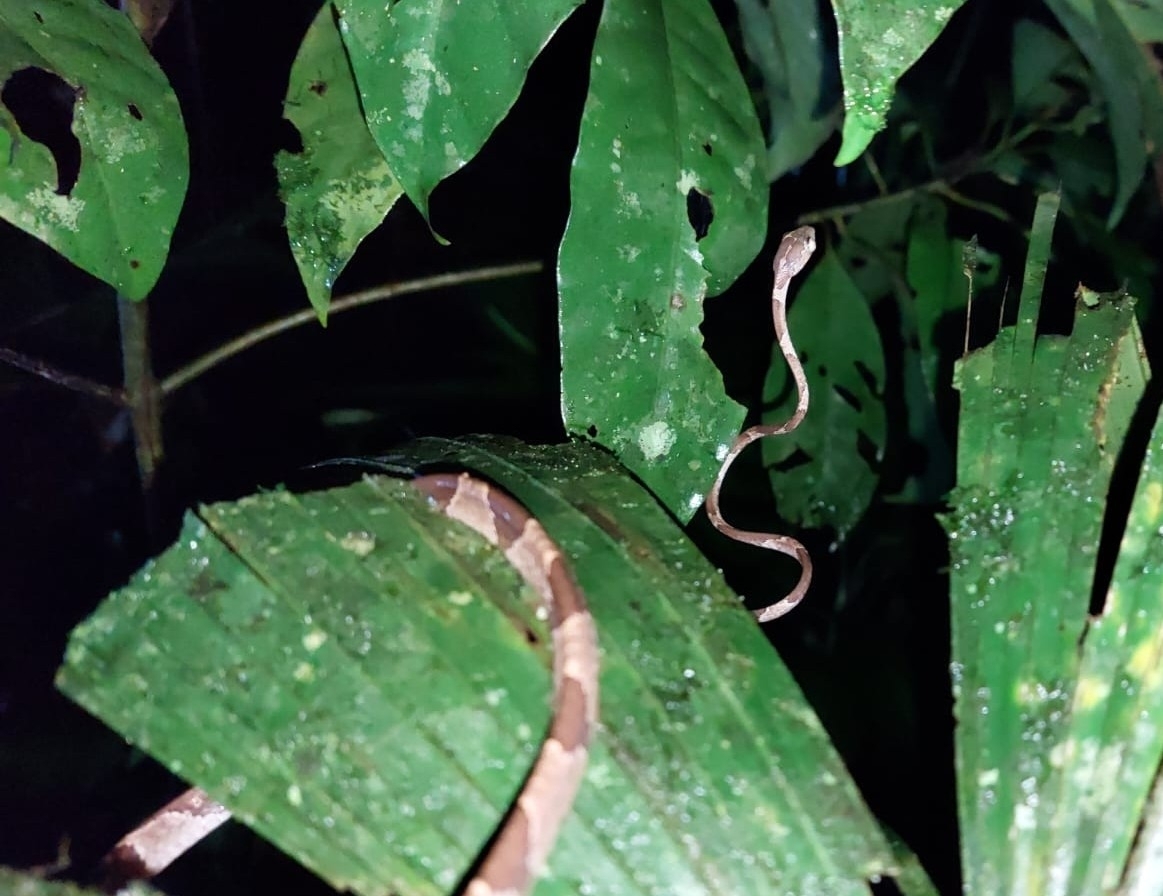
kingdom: Animalia
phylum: Chordata
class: Squamata
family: Colubridae
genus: Imantodes
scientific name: Imantodes cenchoa
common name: Blunthead tree snake
